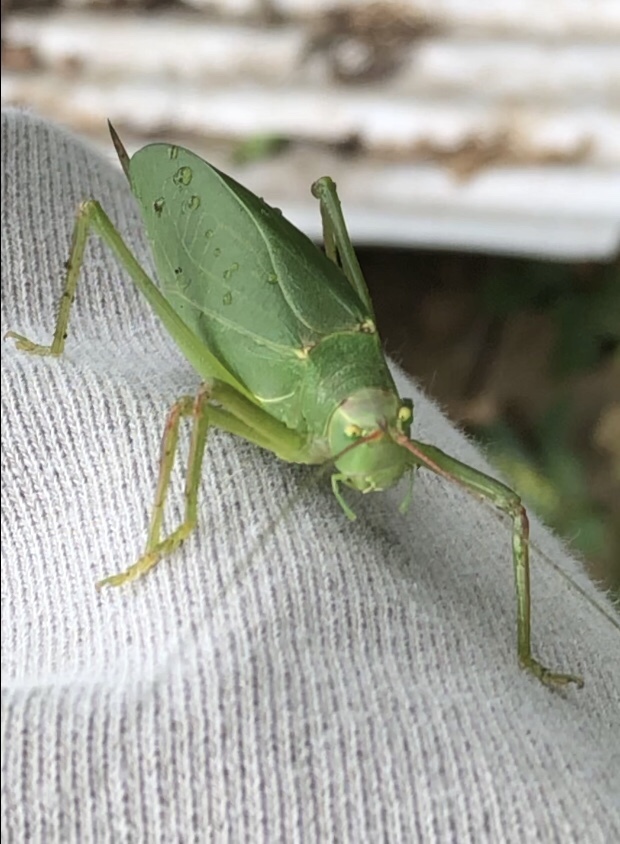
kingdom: Animalia
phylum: Arthropoda
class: Insecta
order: Orthoptera
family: Tettigoniidae
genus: Pterophylla
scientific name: Pterophylla camellifolia
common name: Common true katydid
